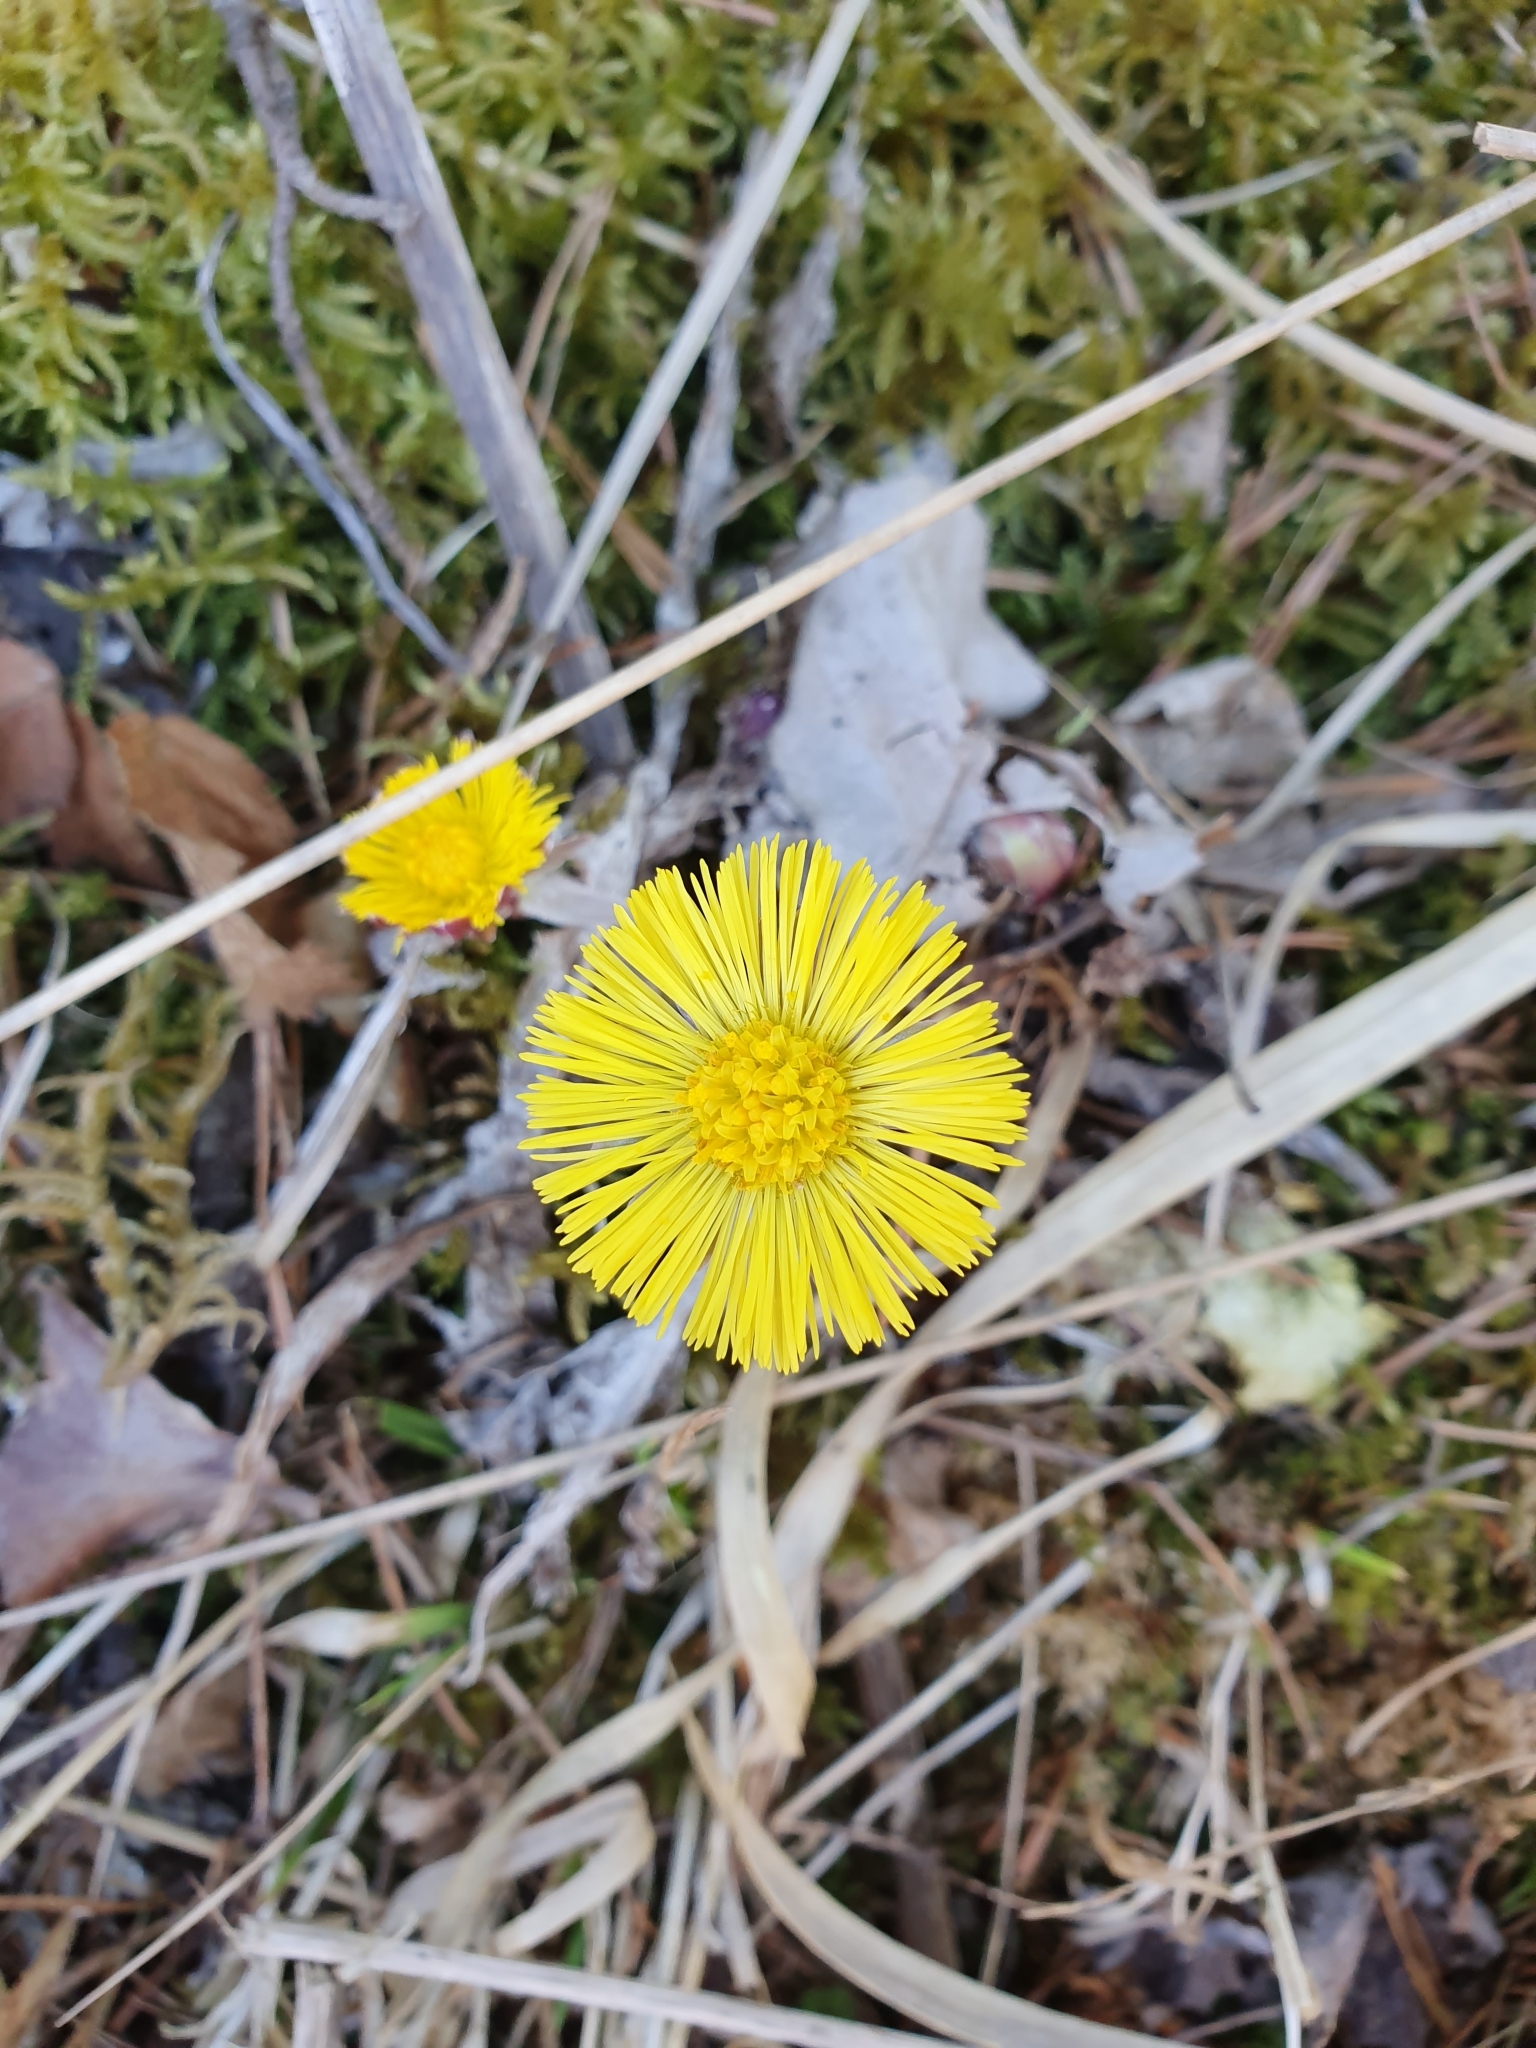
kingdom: Plantae
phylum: Tracheophyta
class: Magnoliopsida
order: Asterales
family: Asteraceae
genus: Tussilago
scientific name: Tussilago farfara
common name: Coltsfoot
